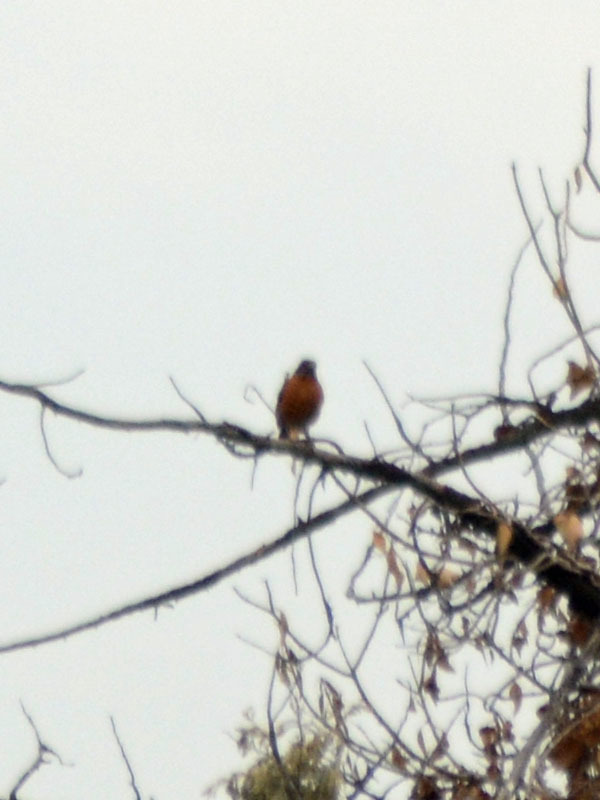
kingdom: Animalia
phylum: Chordata
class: Aves
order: Passeriformes
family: Turdidae
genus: Turdus
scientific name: Turdus migratorius
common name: American robin
